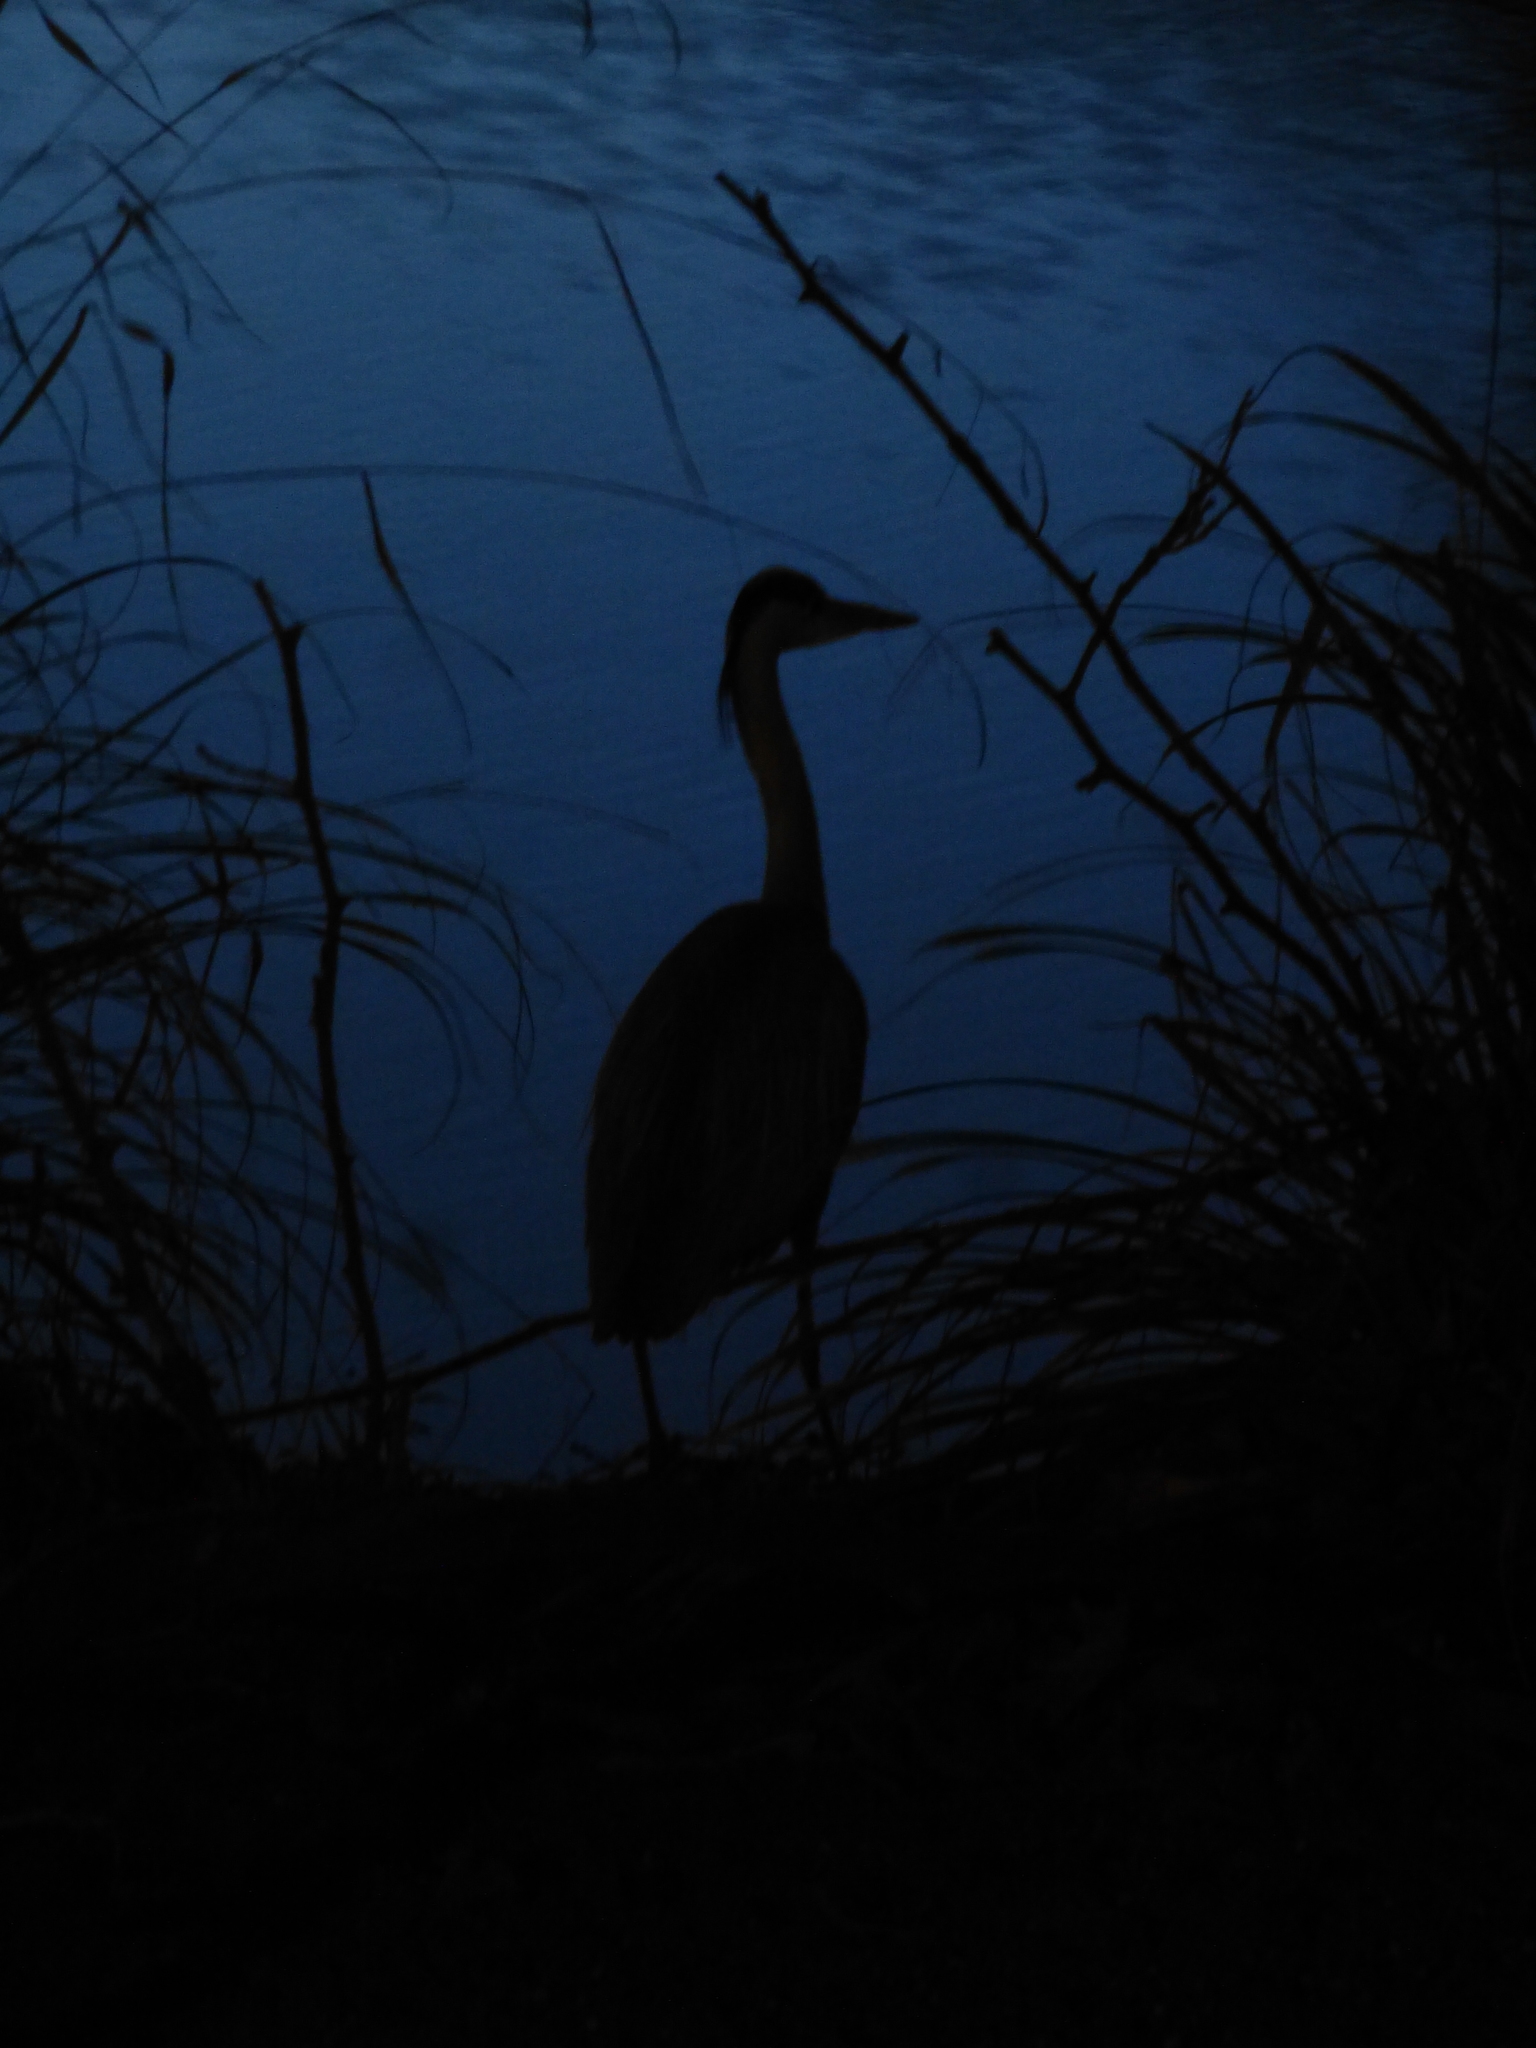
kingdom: Animalia
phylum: Chordata
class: Aves
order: Pelecaniformes
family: Ardeidae
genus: Ardea
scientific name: Ardea cinerea
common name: Grey heron
